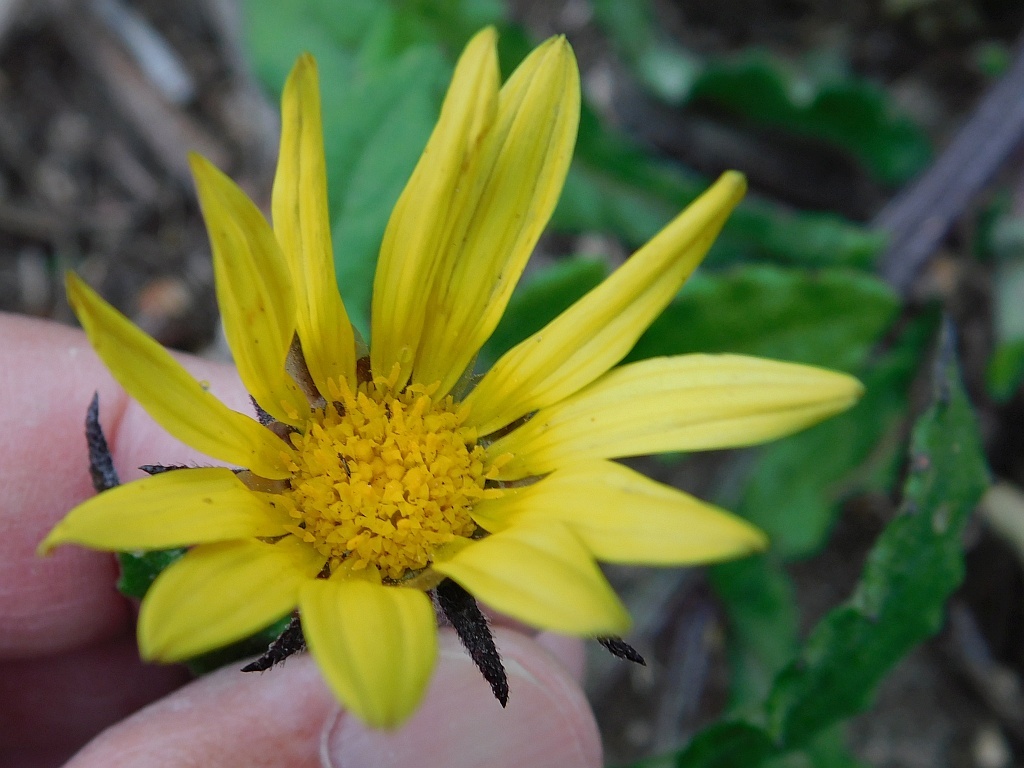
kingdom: Plantae
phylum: Tracheophyta
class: Magnoliopsida
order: Asterales
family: Asteraceae
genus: Arctotis
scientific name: Arctotis scabra
